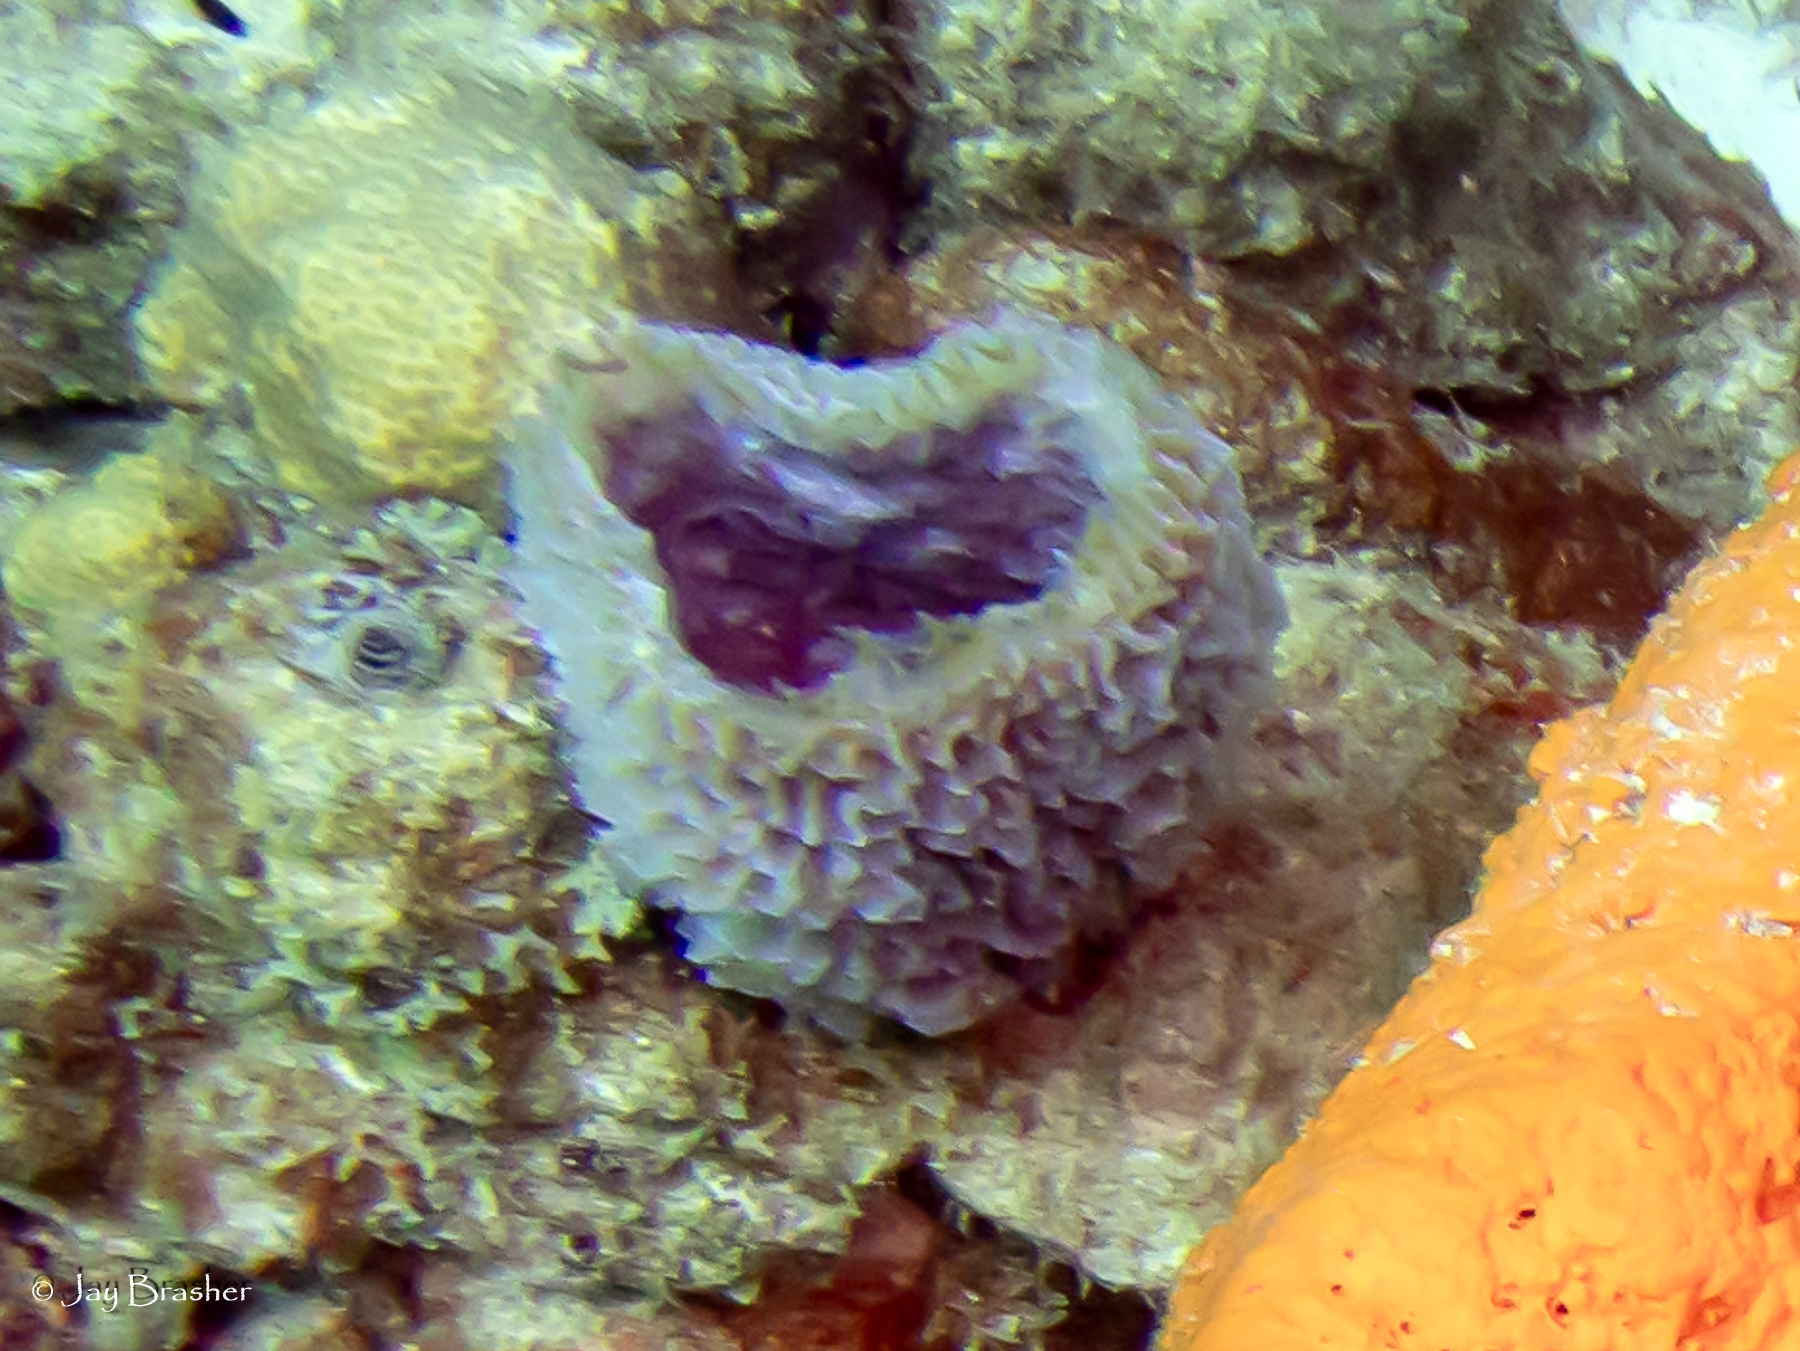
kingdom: Animalia
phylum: Porifera
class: Demospongiae
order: Haplosclerida
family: Callyspongiidae
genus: Callyspongia
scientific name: Callyspongia plicifera
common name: Azure vase sponge
